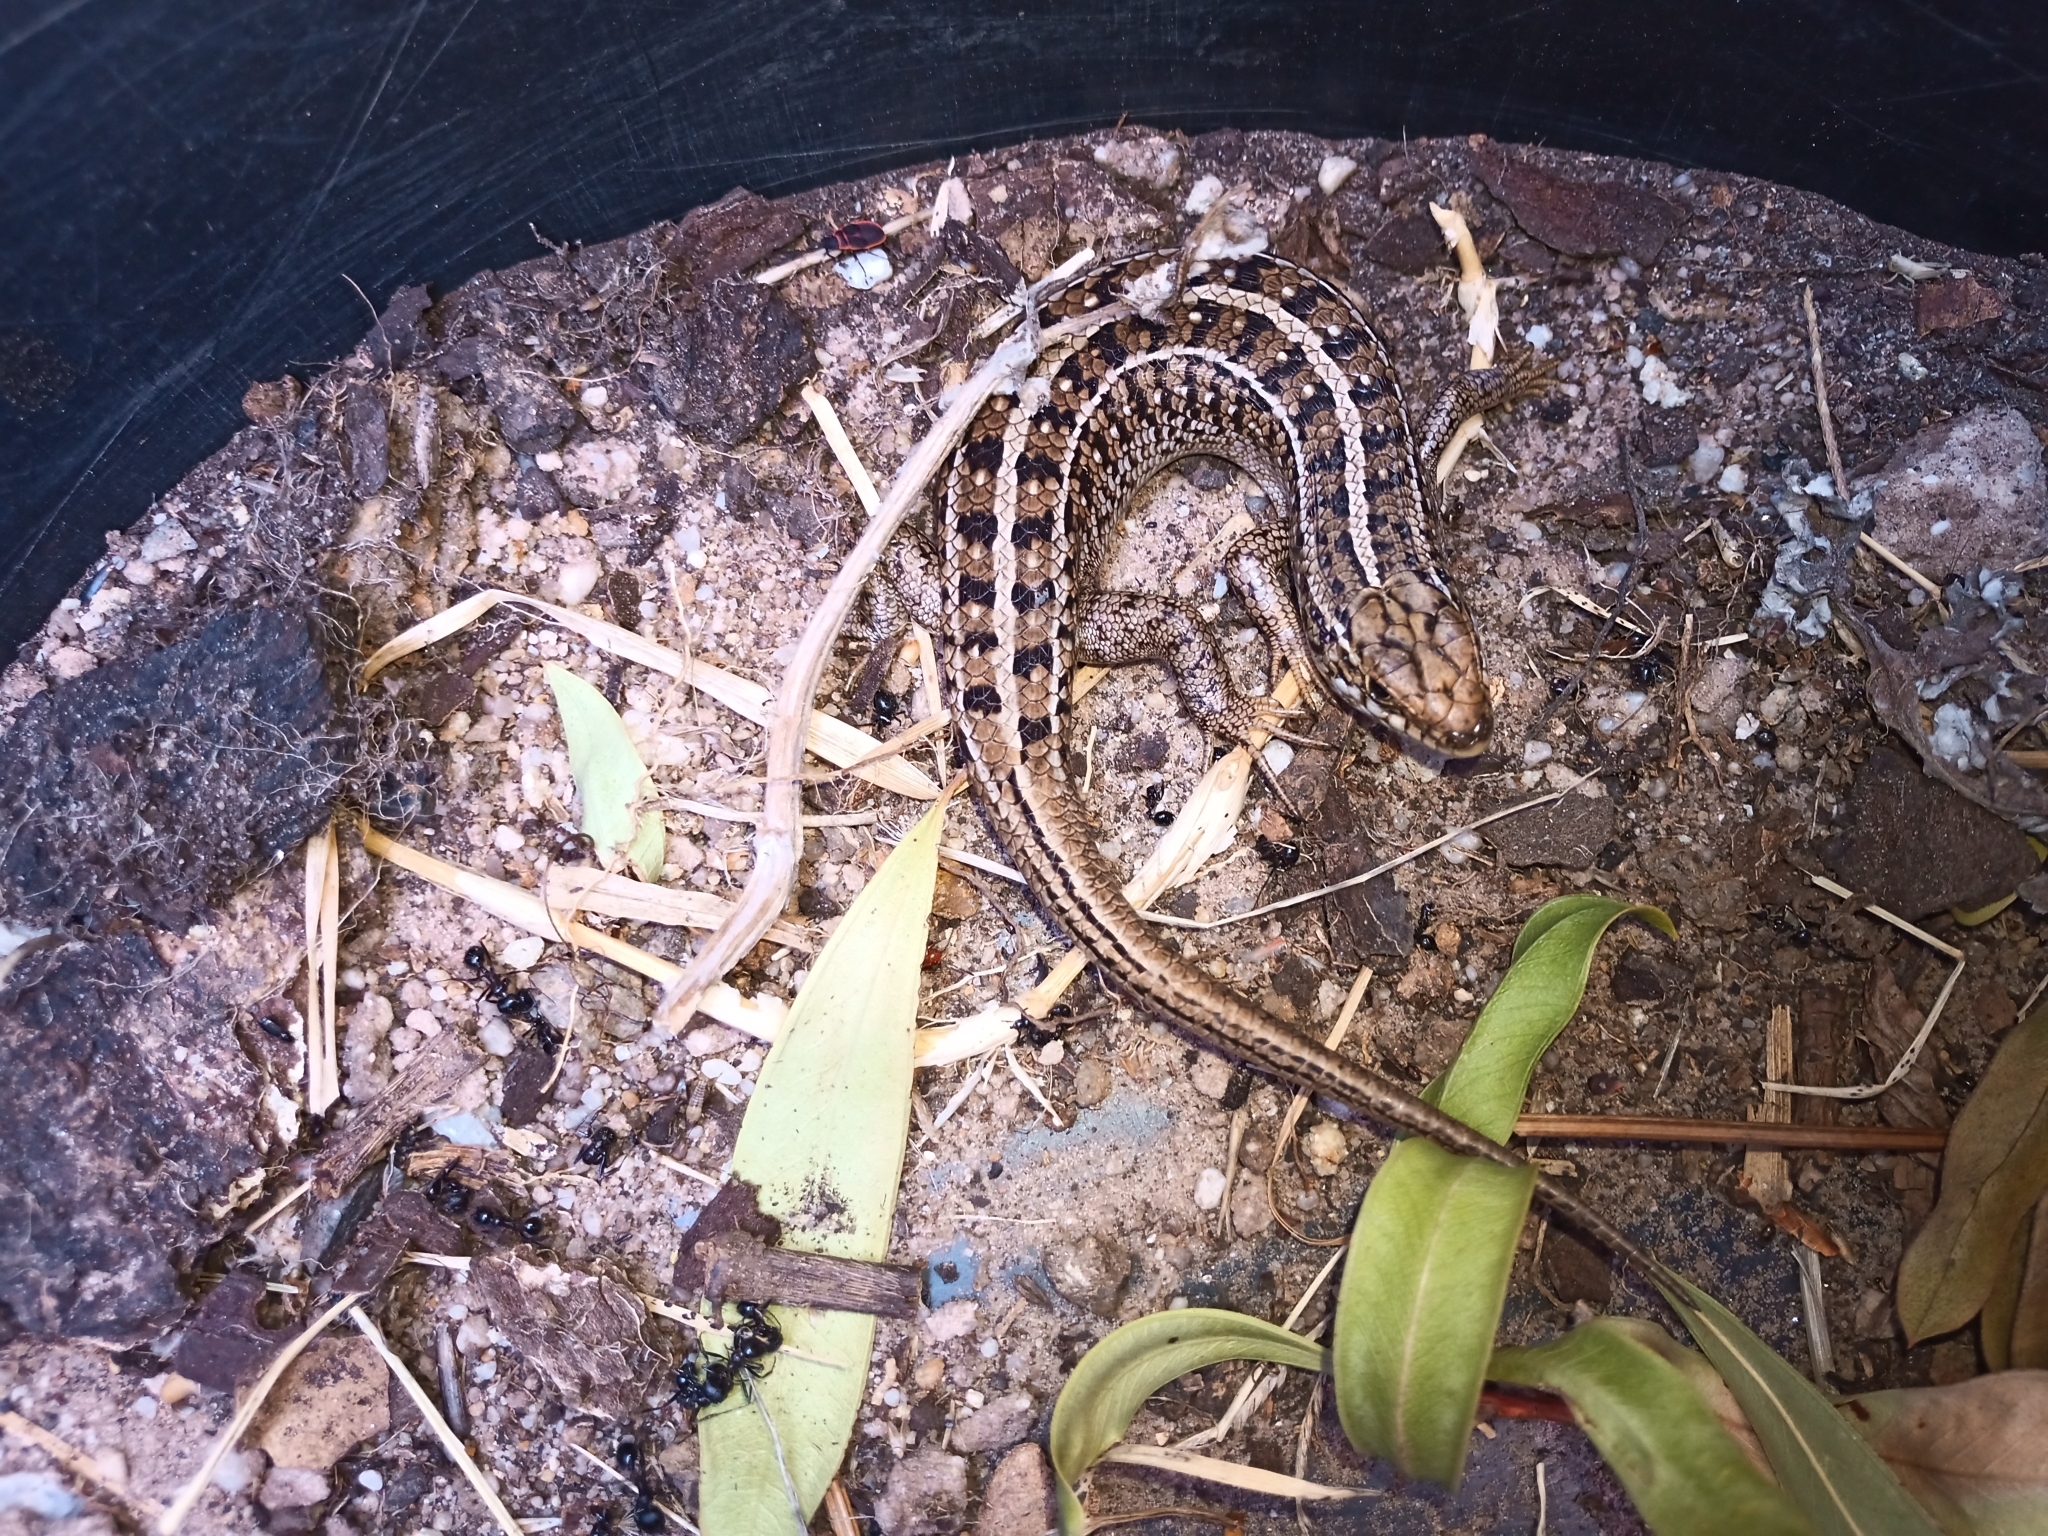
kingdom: Animalia
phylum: Chordata
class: Squamata
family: Scincidae
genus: Trachylepis
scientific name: Trachylepis capensis
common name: Cape skink
